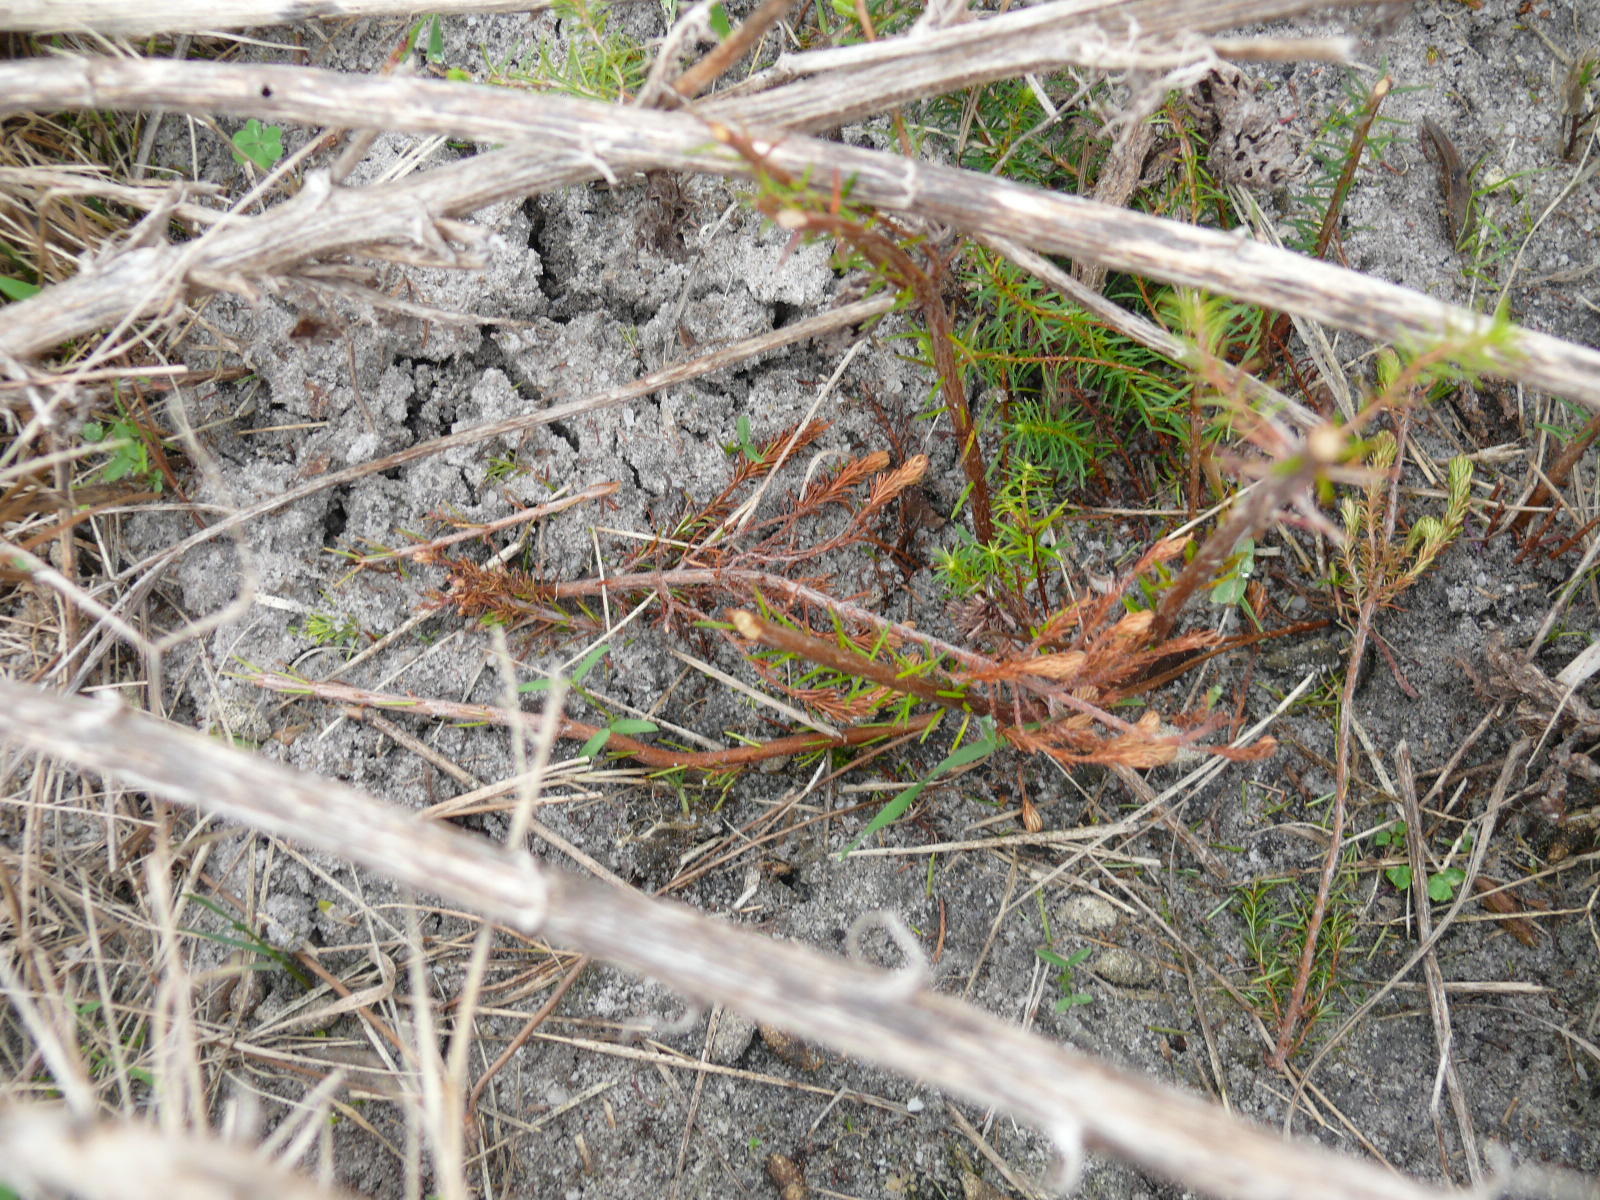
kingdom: Plantae
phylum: Tracheophyta
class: Magnoliopsida
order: Ericales
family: Ericaceae
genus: Erica
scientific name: Erica verticillata
